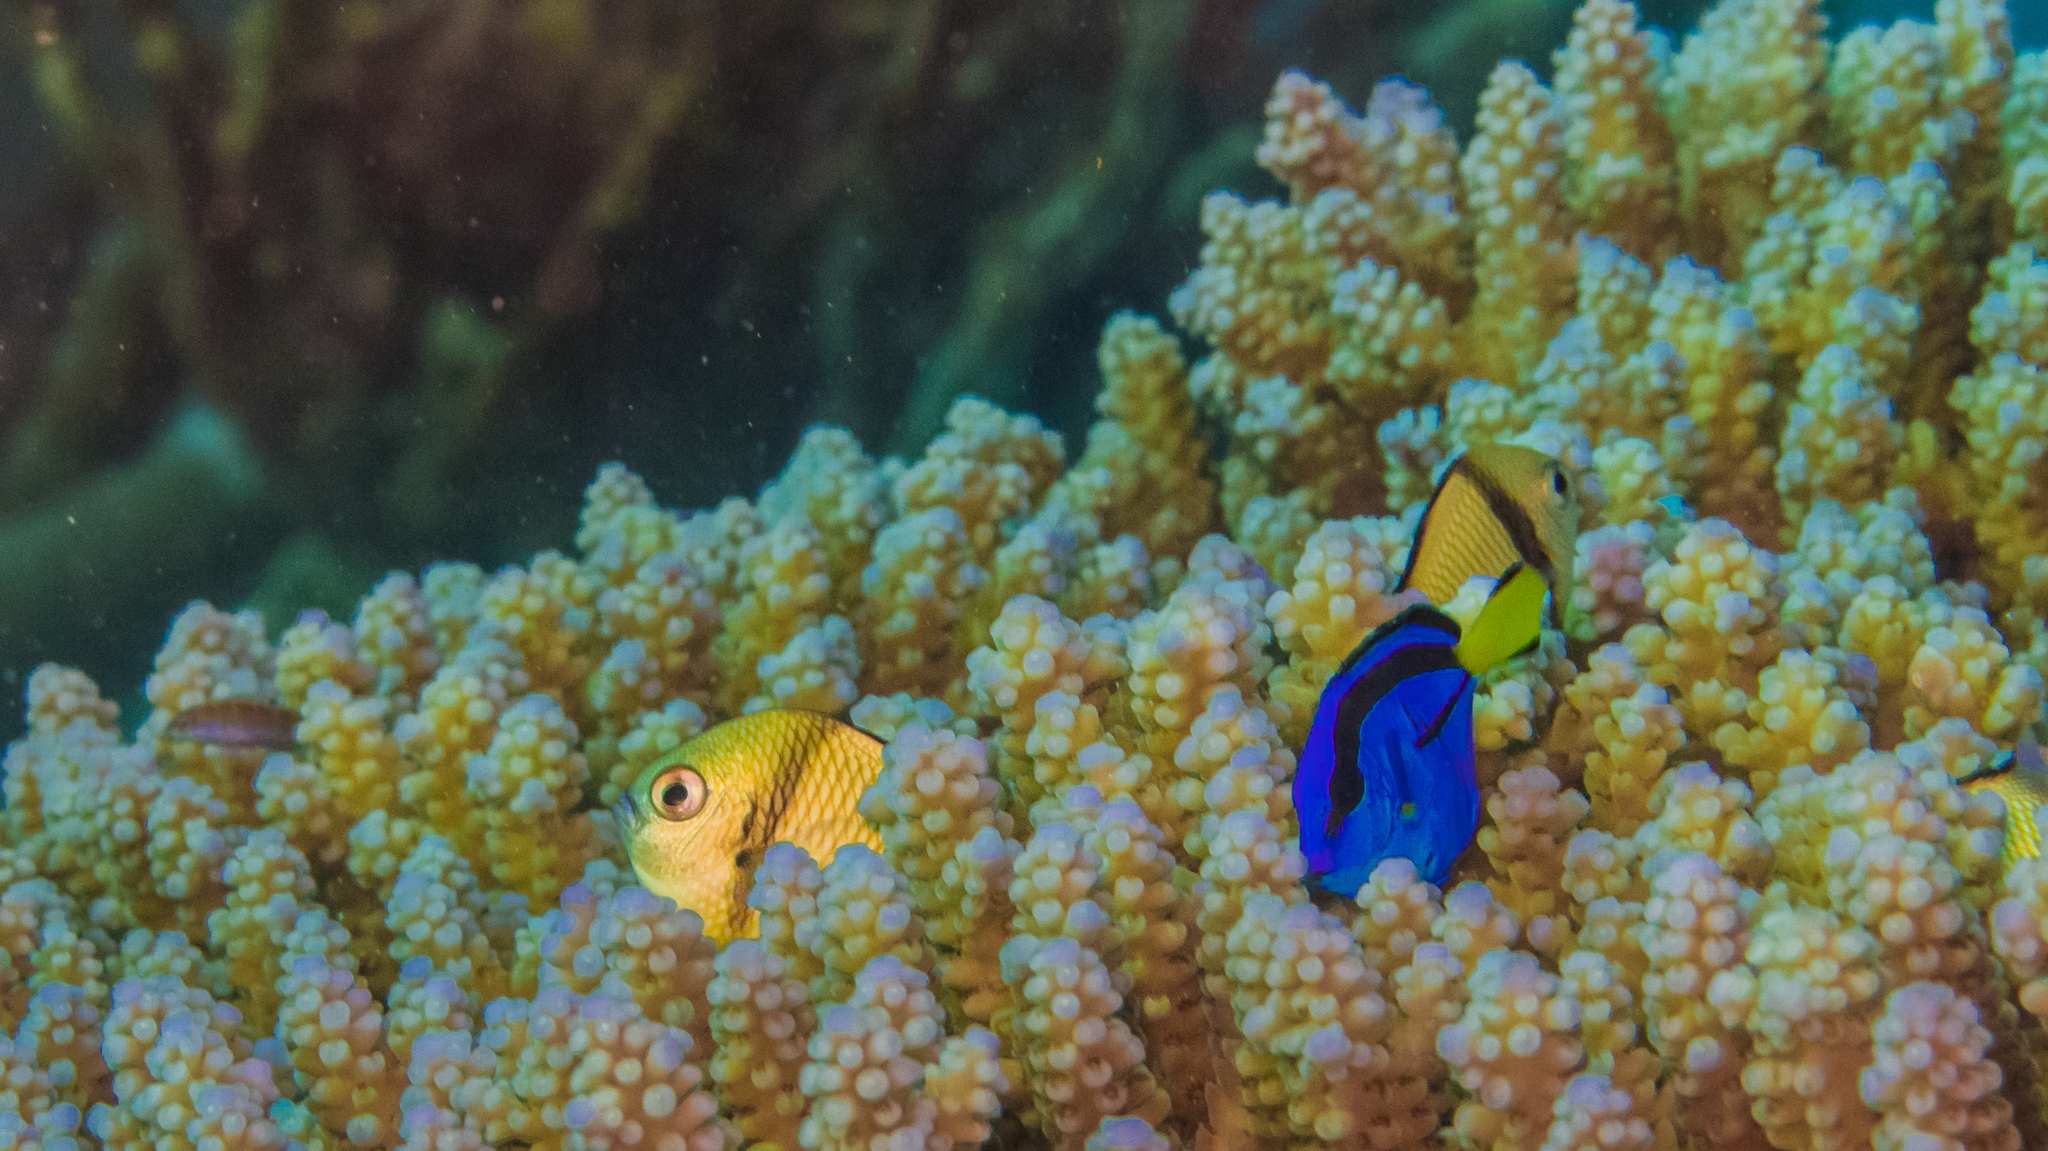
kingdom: Animalia
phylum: Chordata
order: Perciformes
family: Acanthuridae
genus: Paracanthurus
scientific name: Paracanthurus hepatus
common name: Palette surgeonfish
